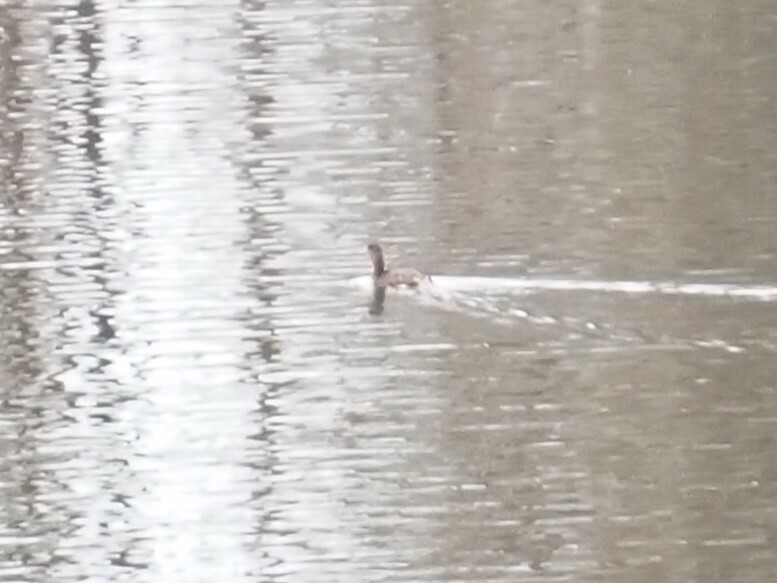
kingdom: Animalia
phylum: Chordata
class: Aves
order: Podicipediformes
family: Podicipedidae
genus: Podilymbus
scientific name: Podilymbus podiceps
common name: Pied-billed grebe
